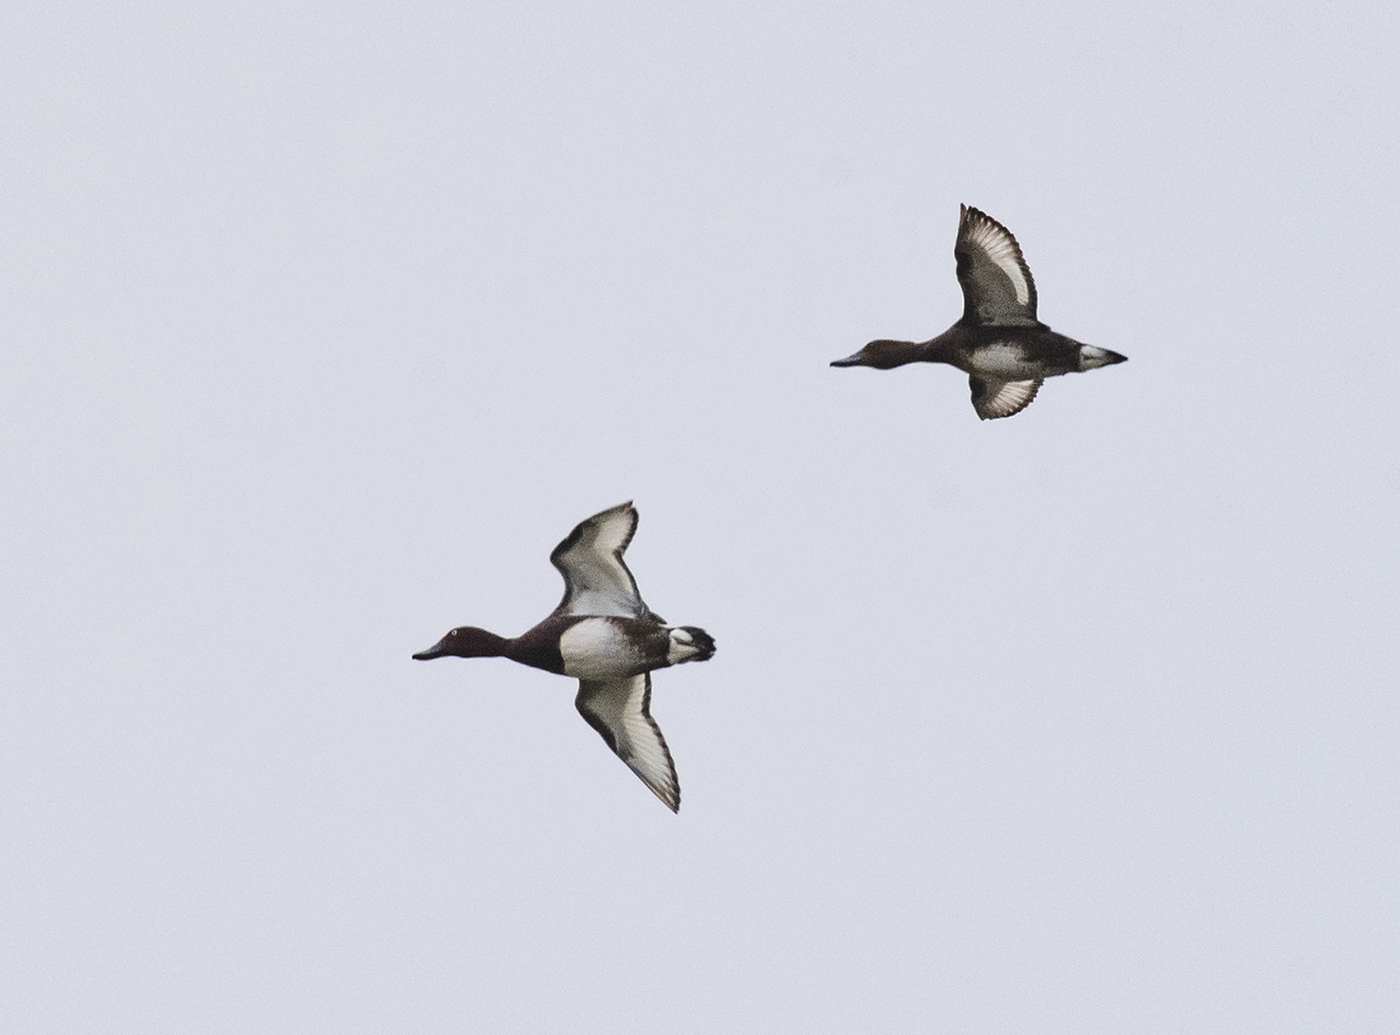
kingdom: Animalia
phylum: Chordata
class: Aves
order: Anseriformes
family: Anatidae
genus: Aythya
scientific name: Aythya nyroca
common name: Ferruginous duck
